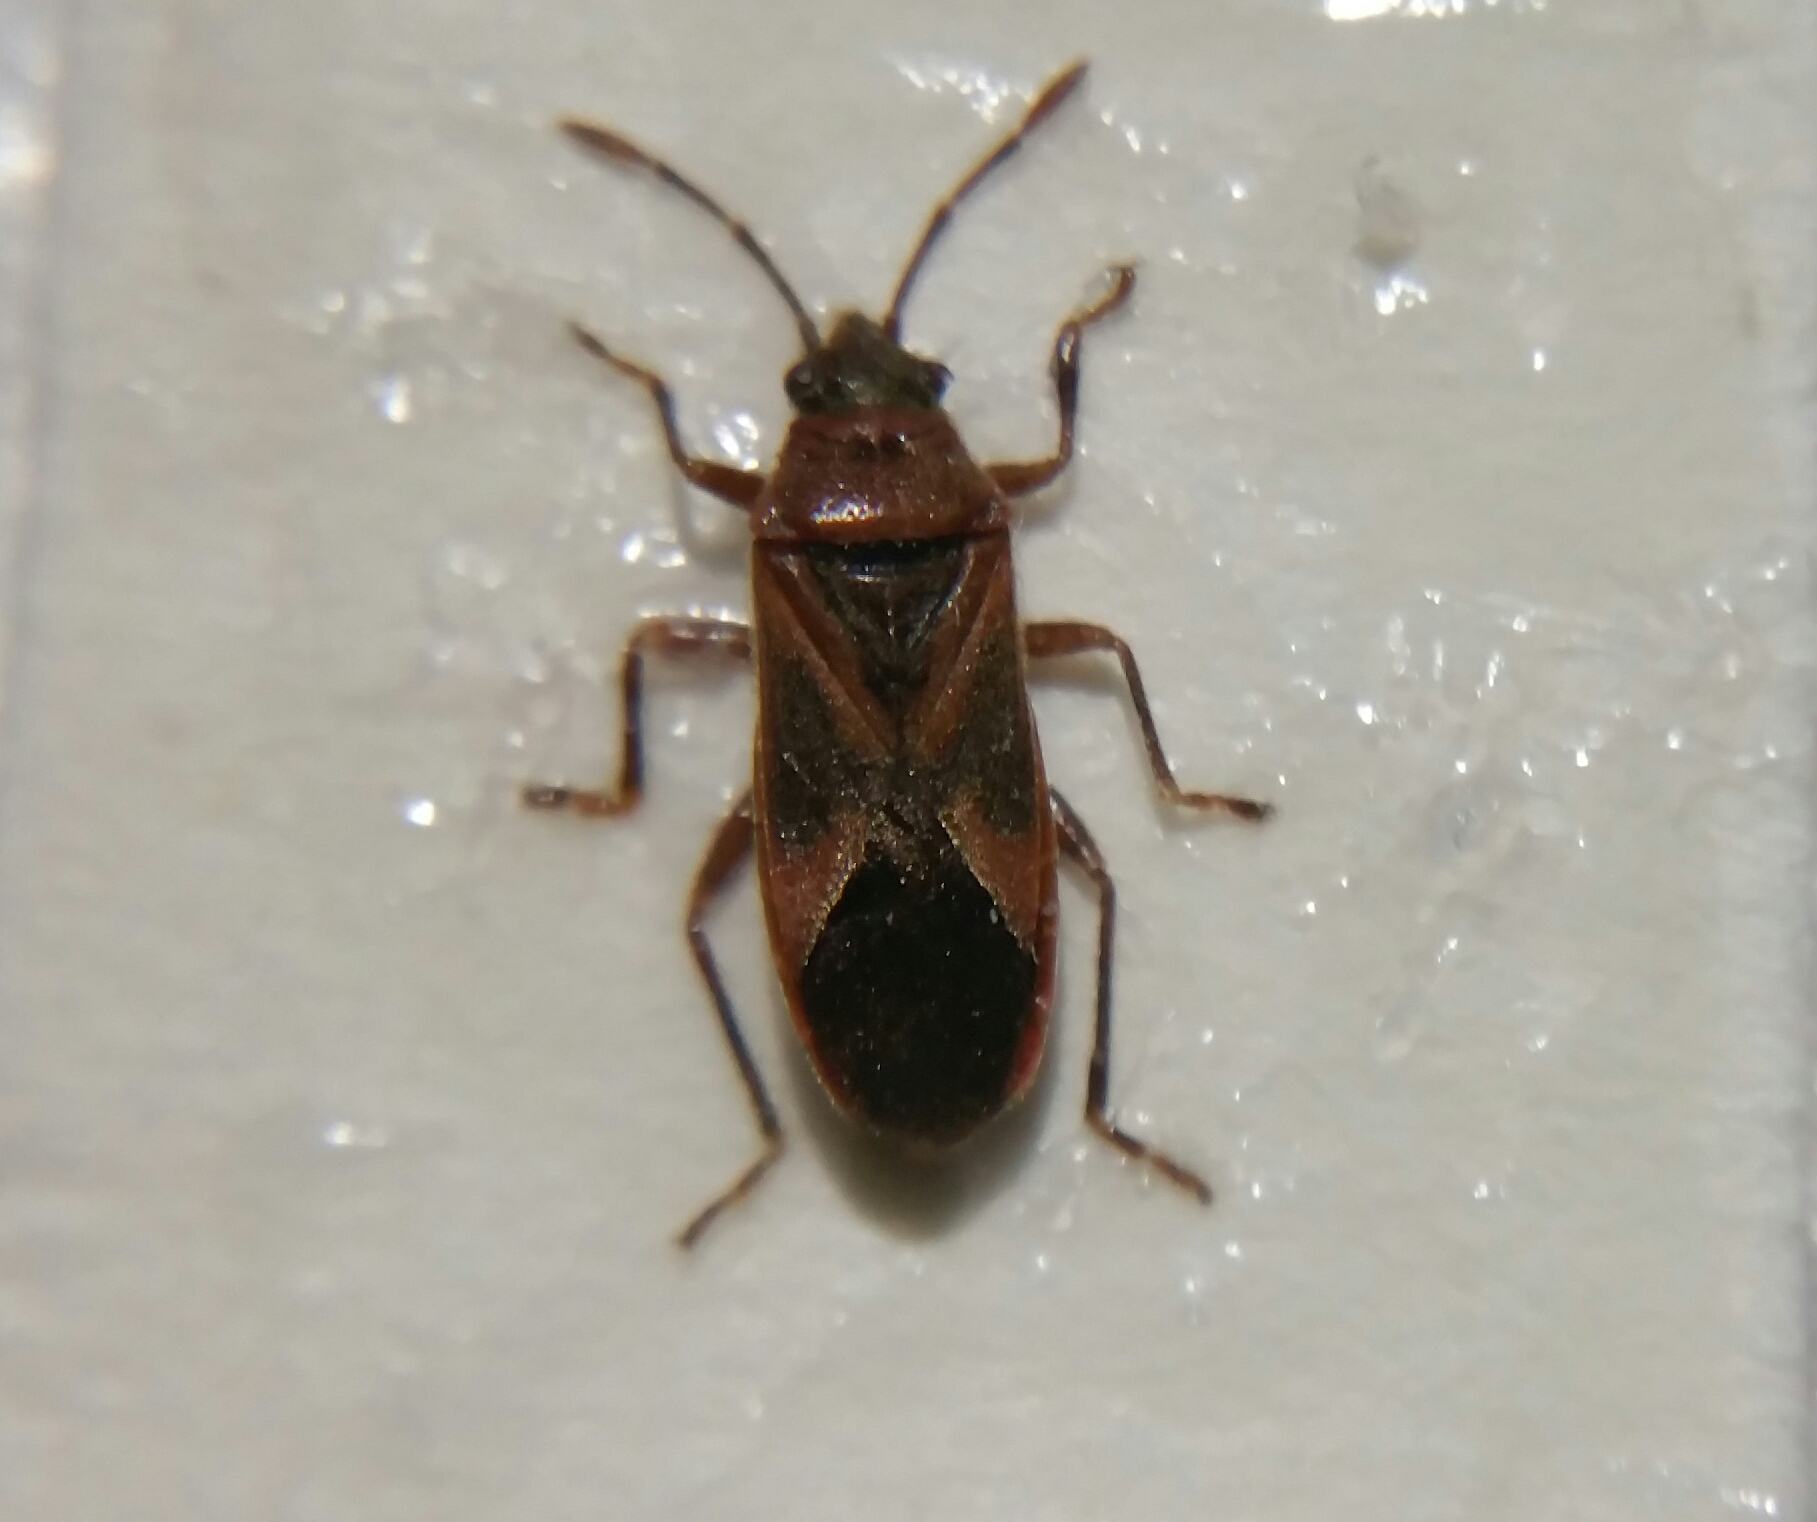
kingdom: Animalia
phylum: Arthropoda
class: Insecta
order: Hemiptera
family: Lygaeidae
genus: Arocatus
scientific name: Arocatus longiceps
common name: Plane tree bug
